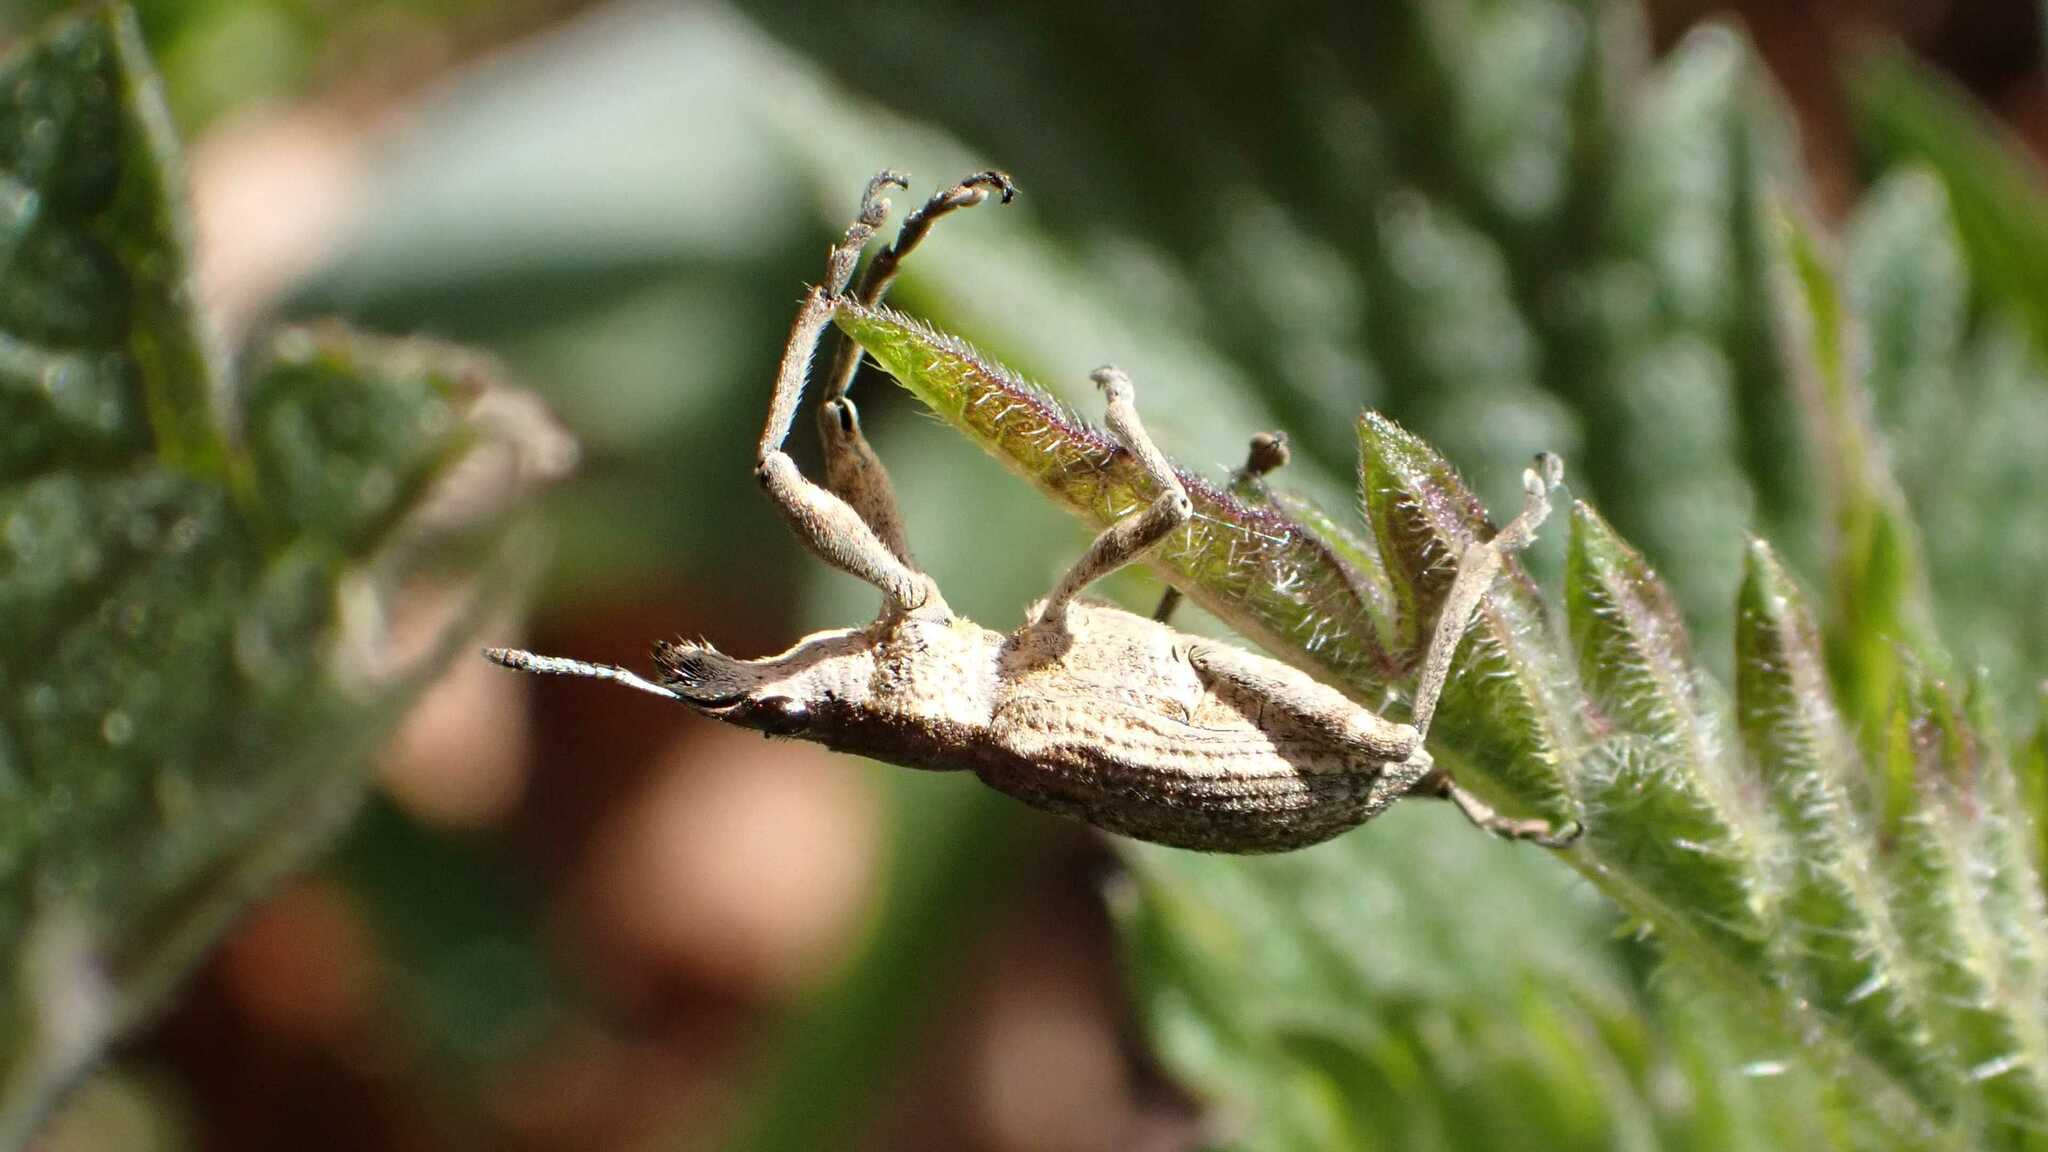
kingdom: Animalia
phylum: Arthropoda
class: Insecta
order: Coleoptera
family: Curculionidae
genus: Charagmus
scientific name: Charagmus gressorius
